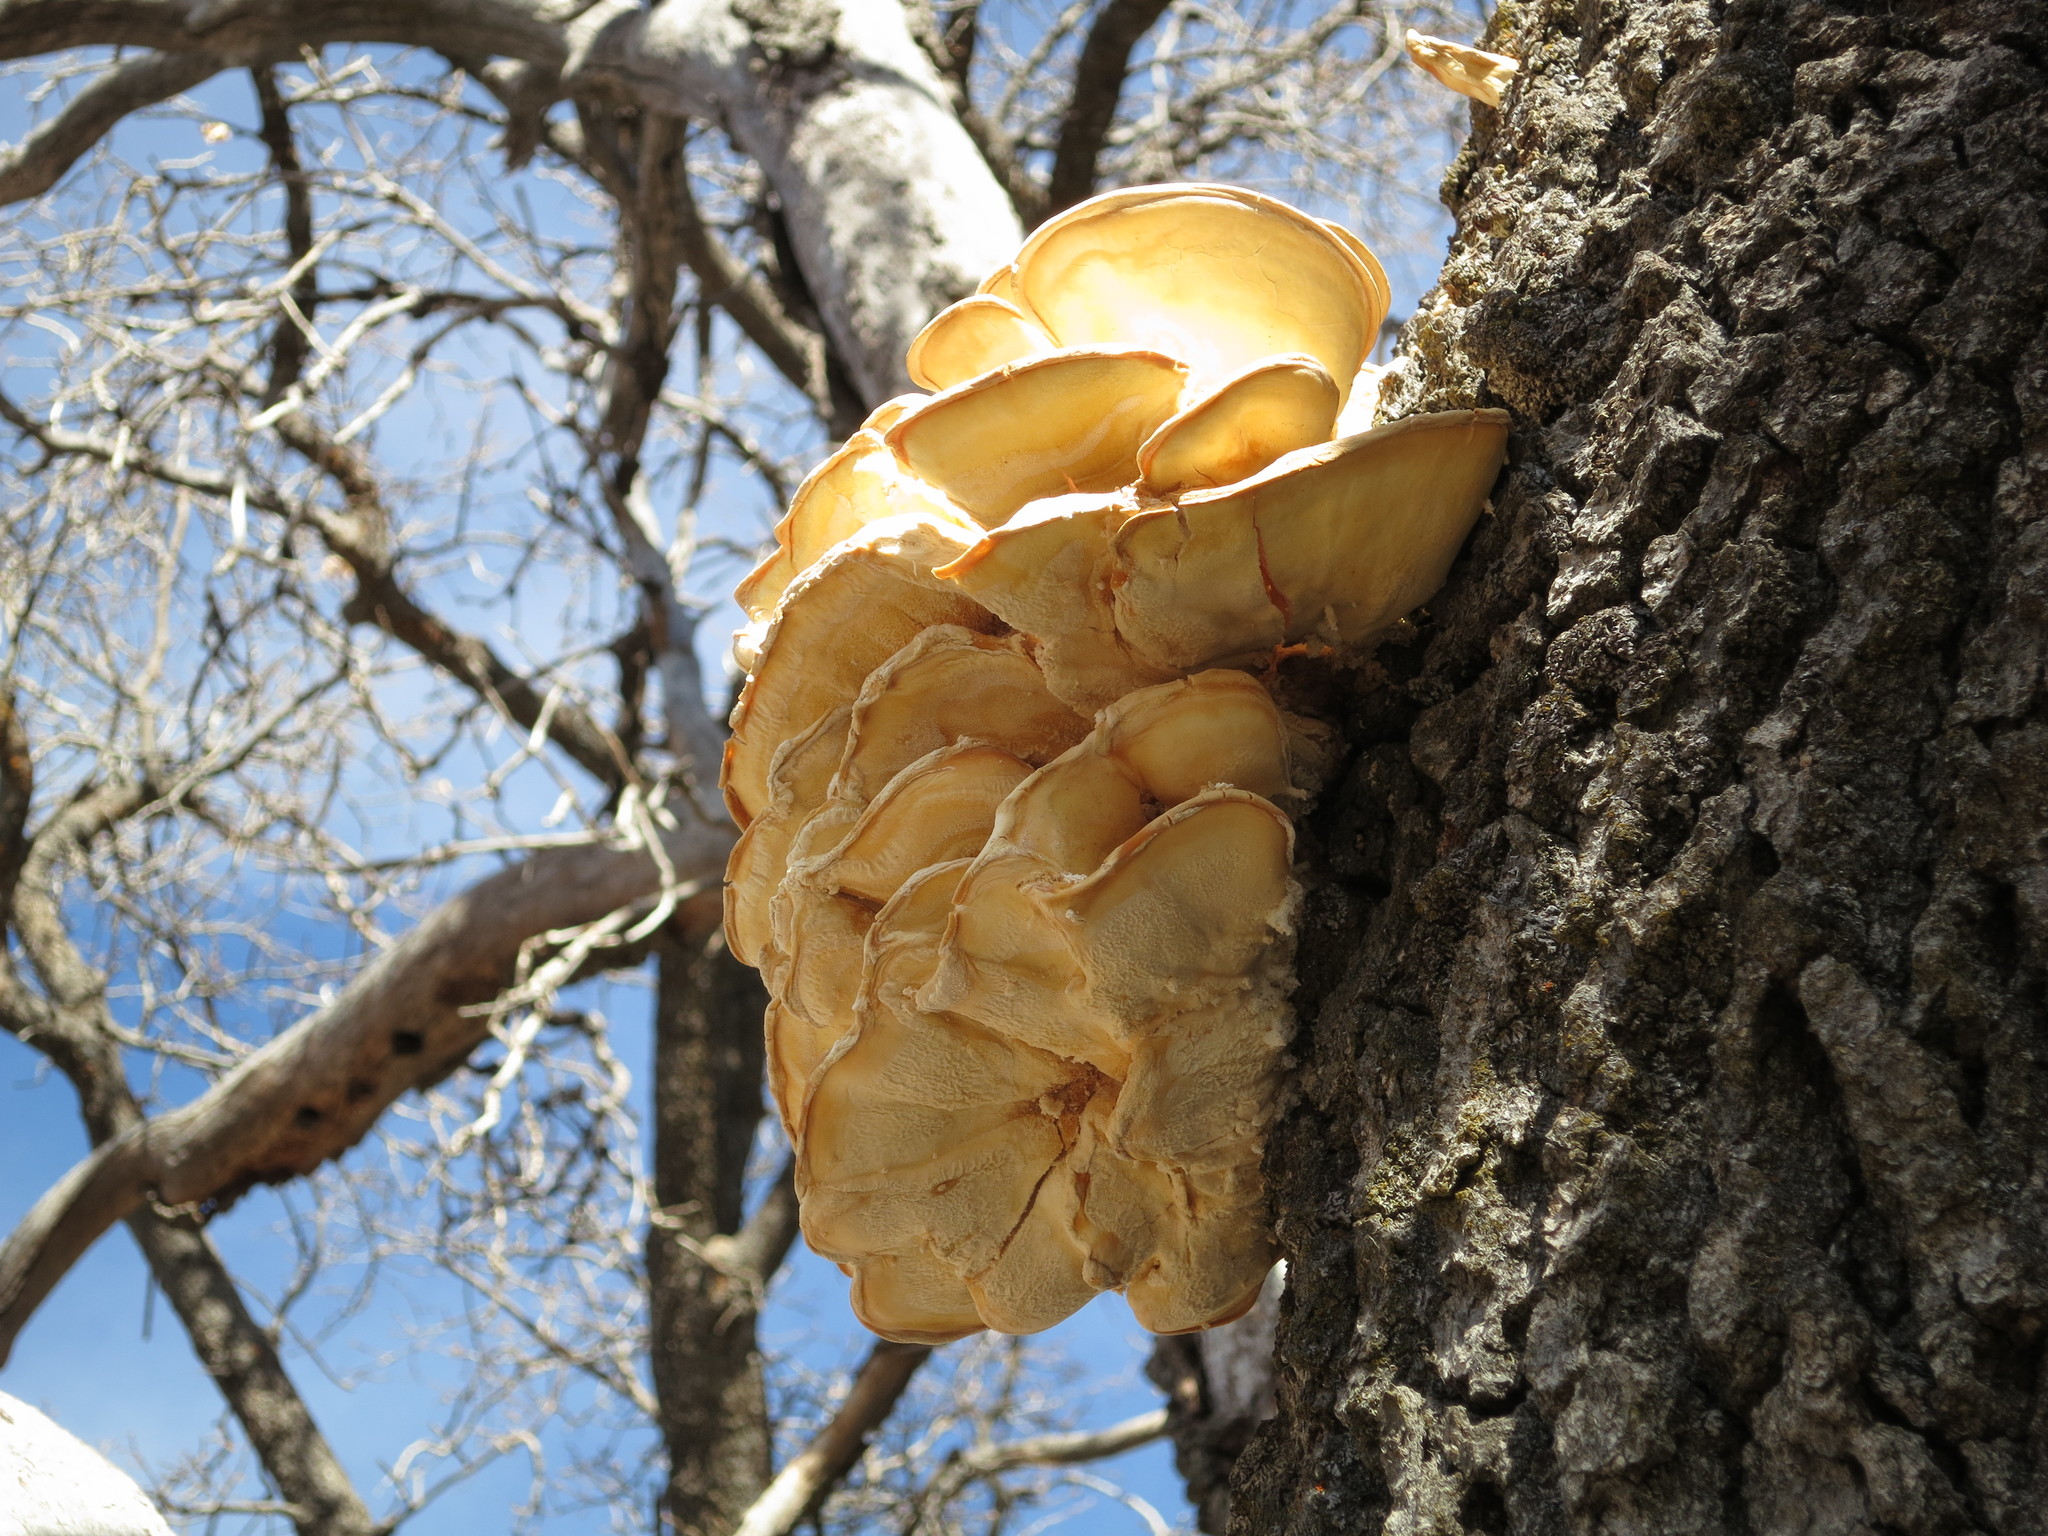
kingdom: Fungi
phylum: Basidiomycota
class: Agaricomycetes
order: Polyporales
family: Laetiporaceae
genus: Laetiporus
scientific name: Laetiporus gilbertsonii
